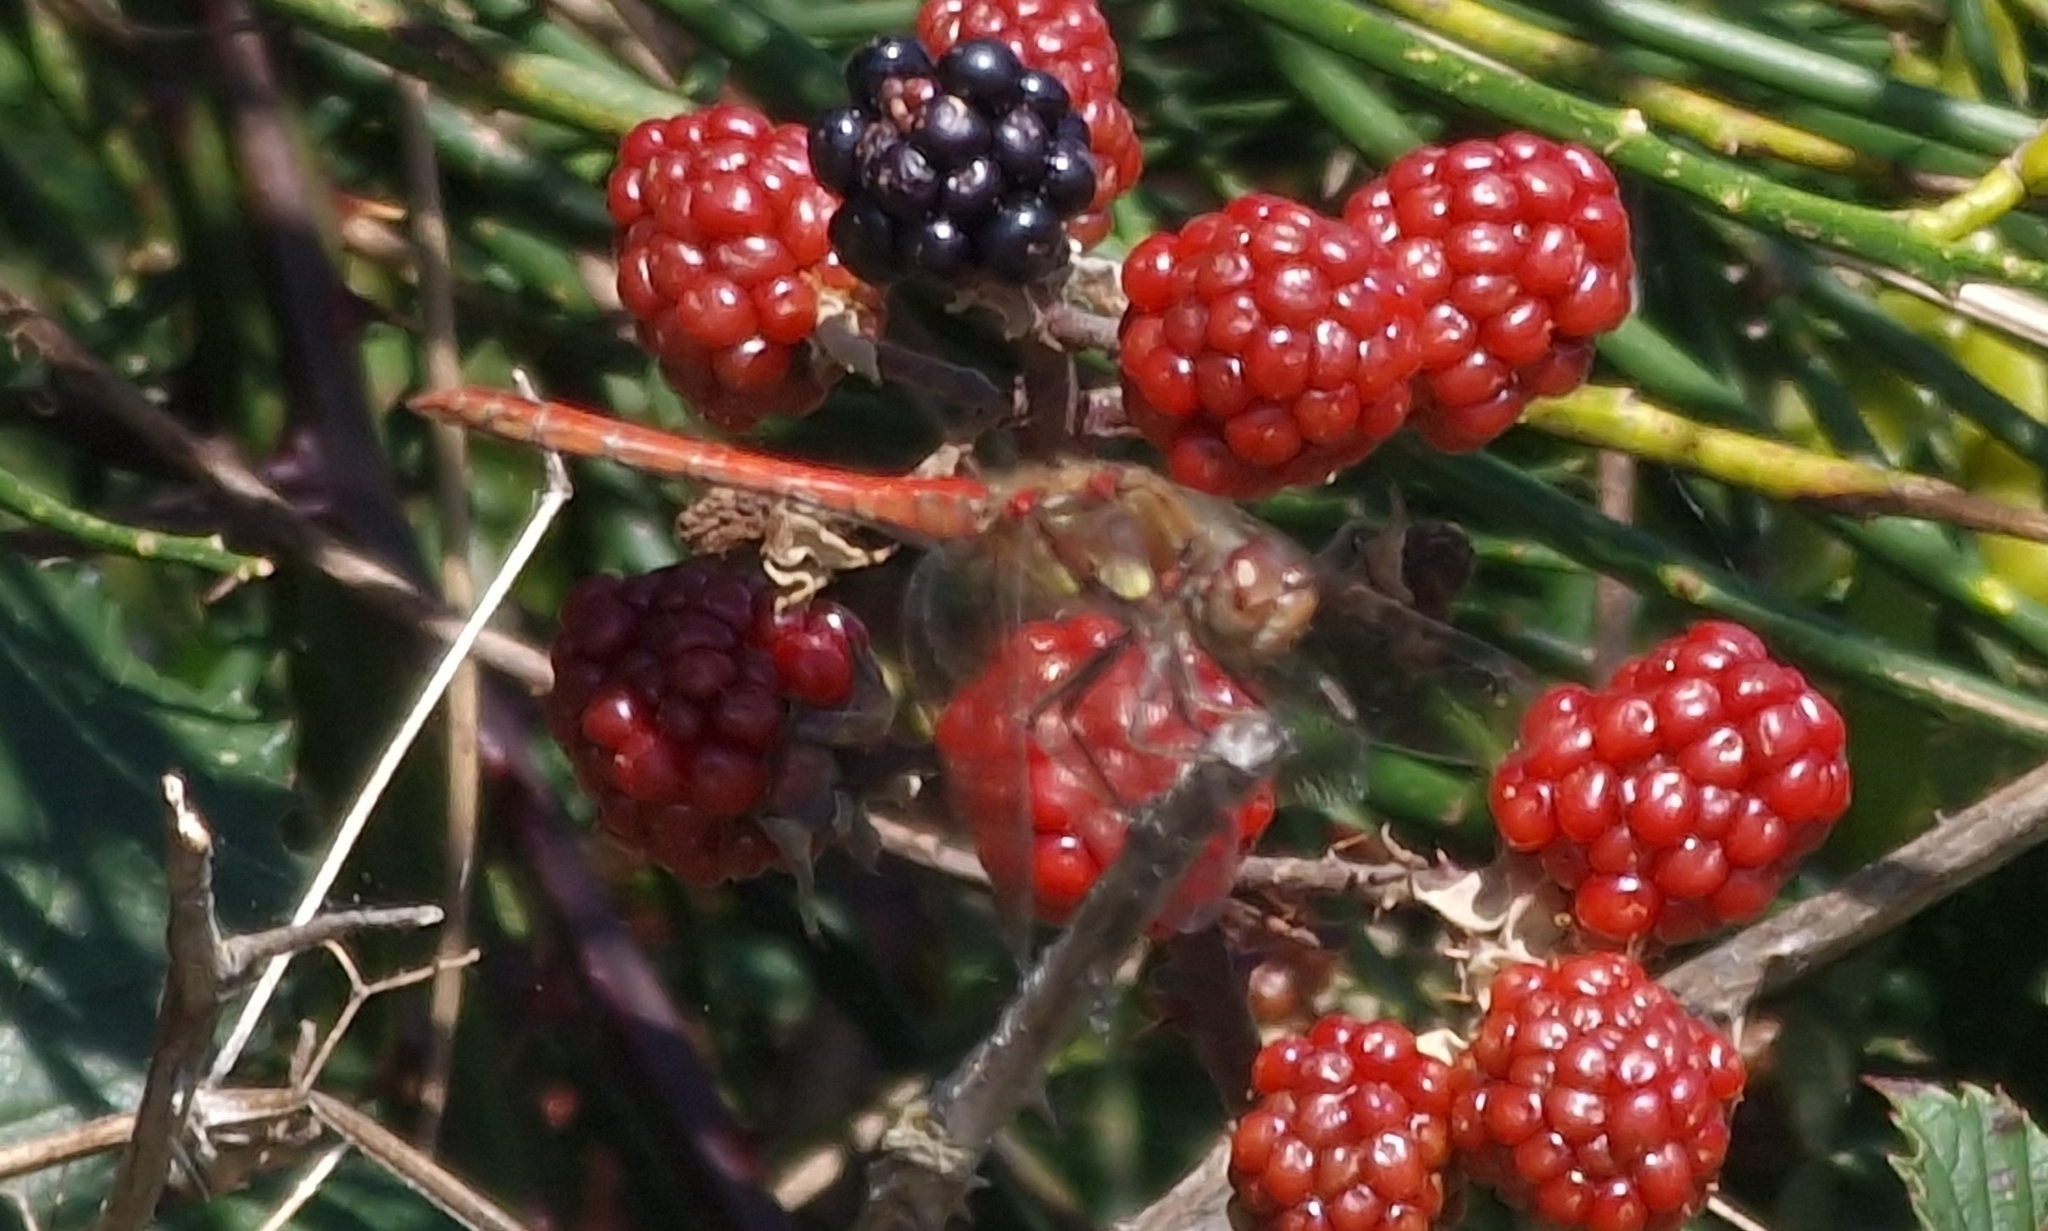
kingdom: Animalia
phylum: Arthropoda
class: Insecta
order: Odonata
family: Libellulidae
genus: Sympetrum
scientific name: Sympetrum striolatum
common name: Common darter
